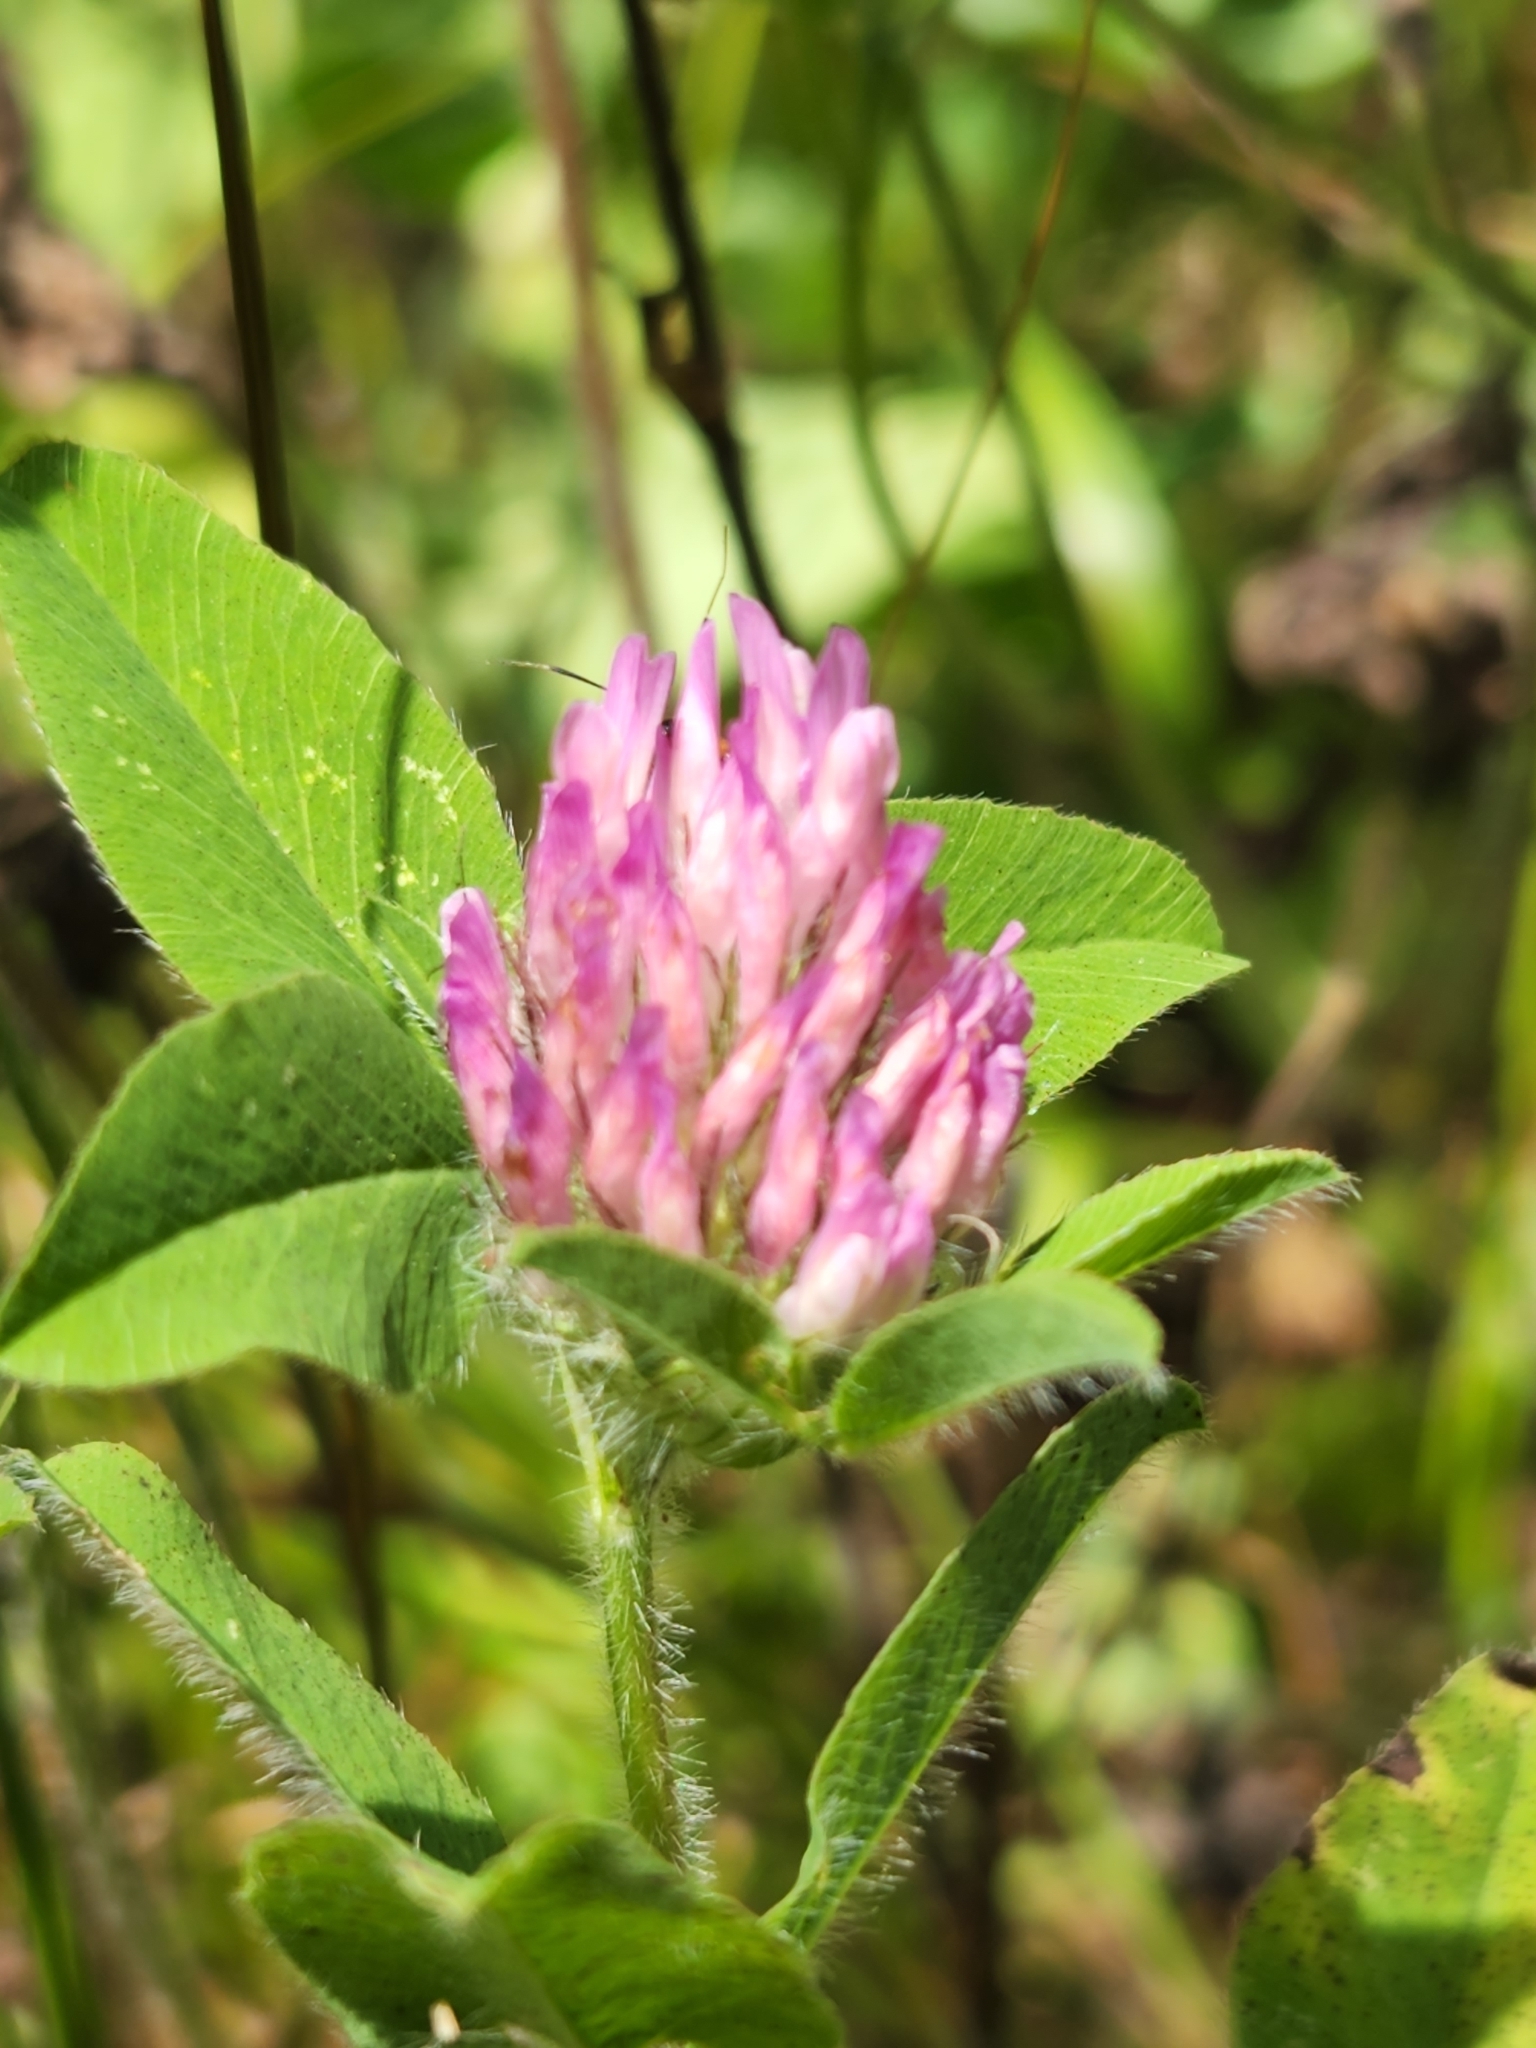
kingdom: Plantae
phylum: Tracheophyta
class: Magnoliopsida
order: Fabales
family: Fabaceae
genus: Trifolium
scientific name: Trifolium pratense
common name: Red clover
